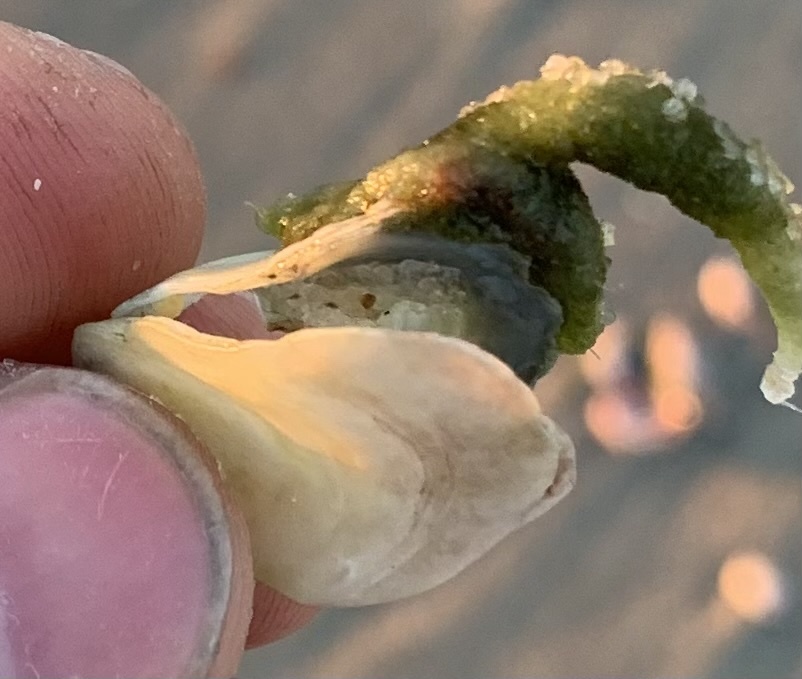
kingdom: Animalia
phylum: Mollusca
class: Bivalvia
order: Pectinida
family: Anomiidae
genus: Anomia
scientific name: Anomia simplex
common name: Common jingle shell
